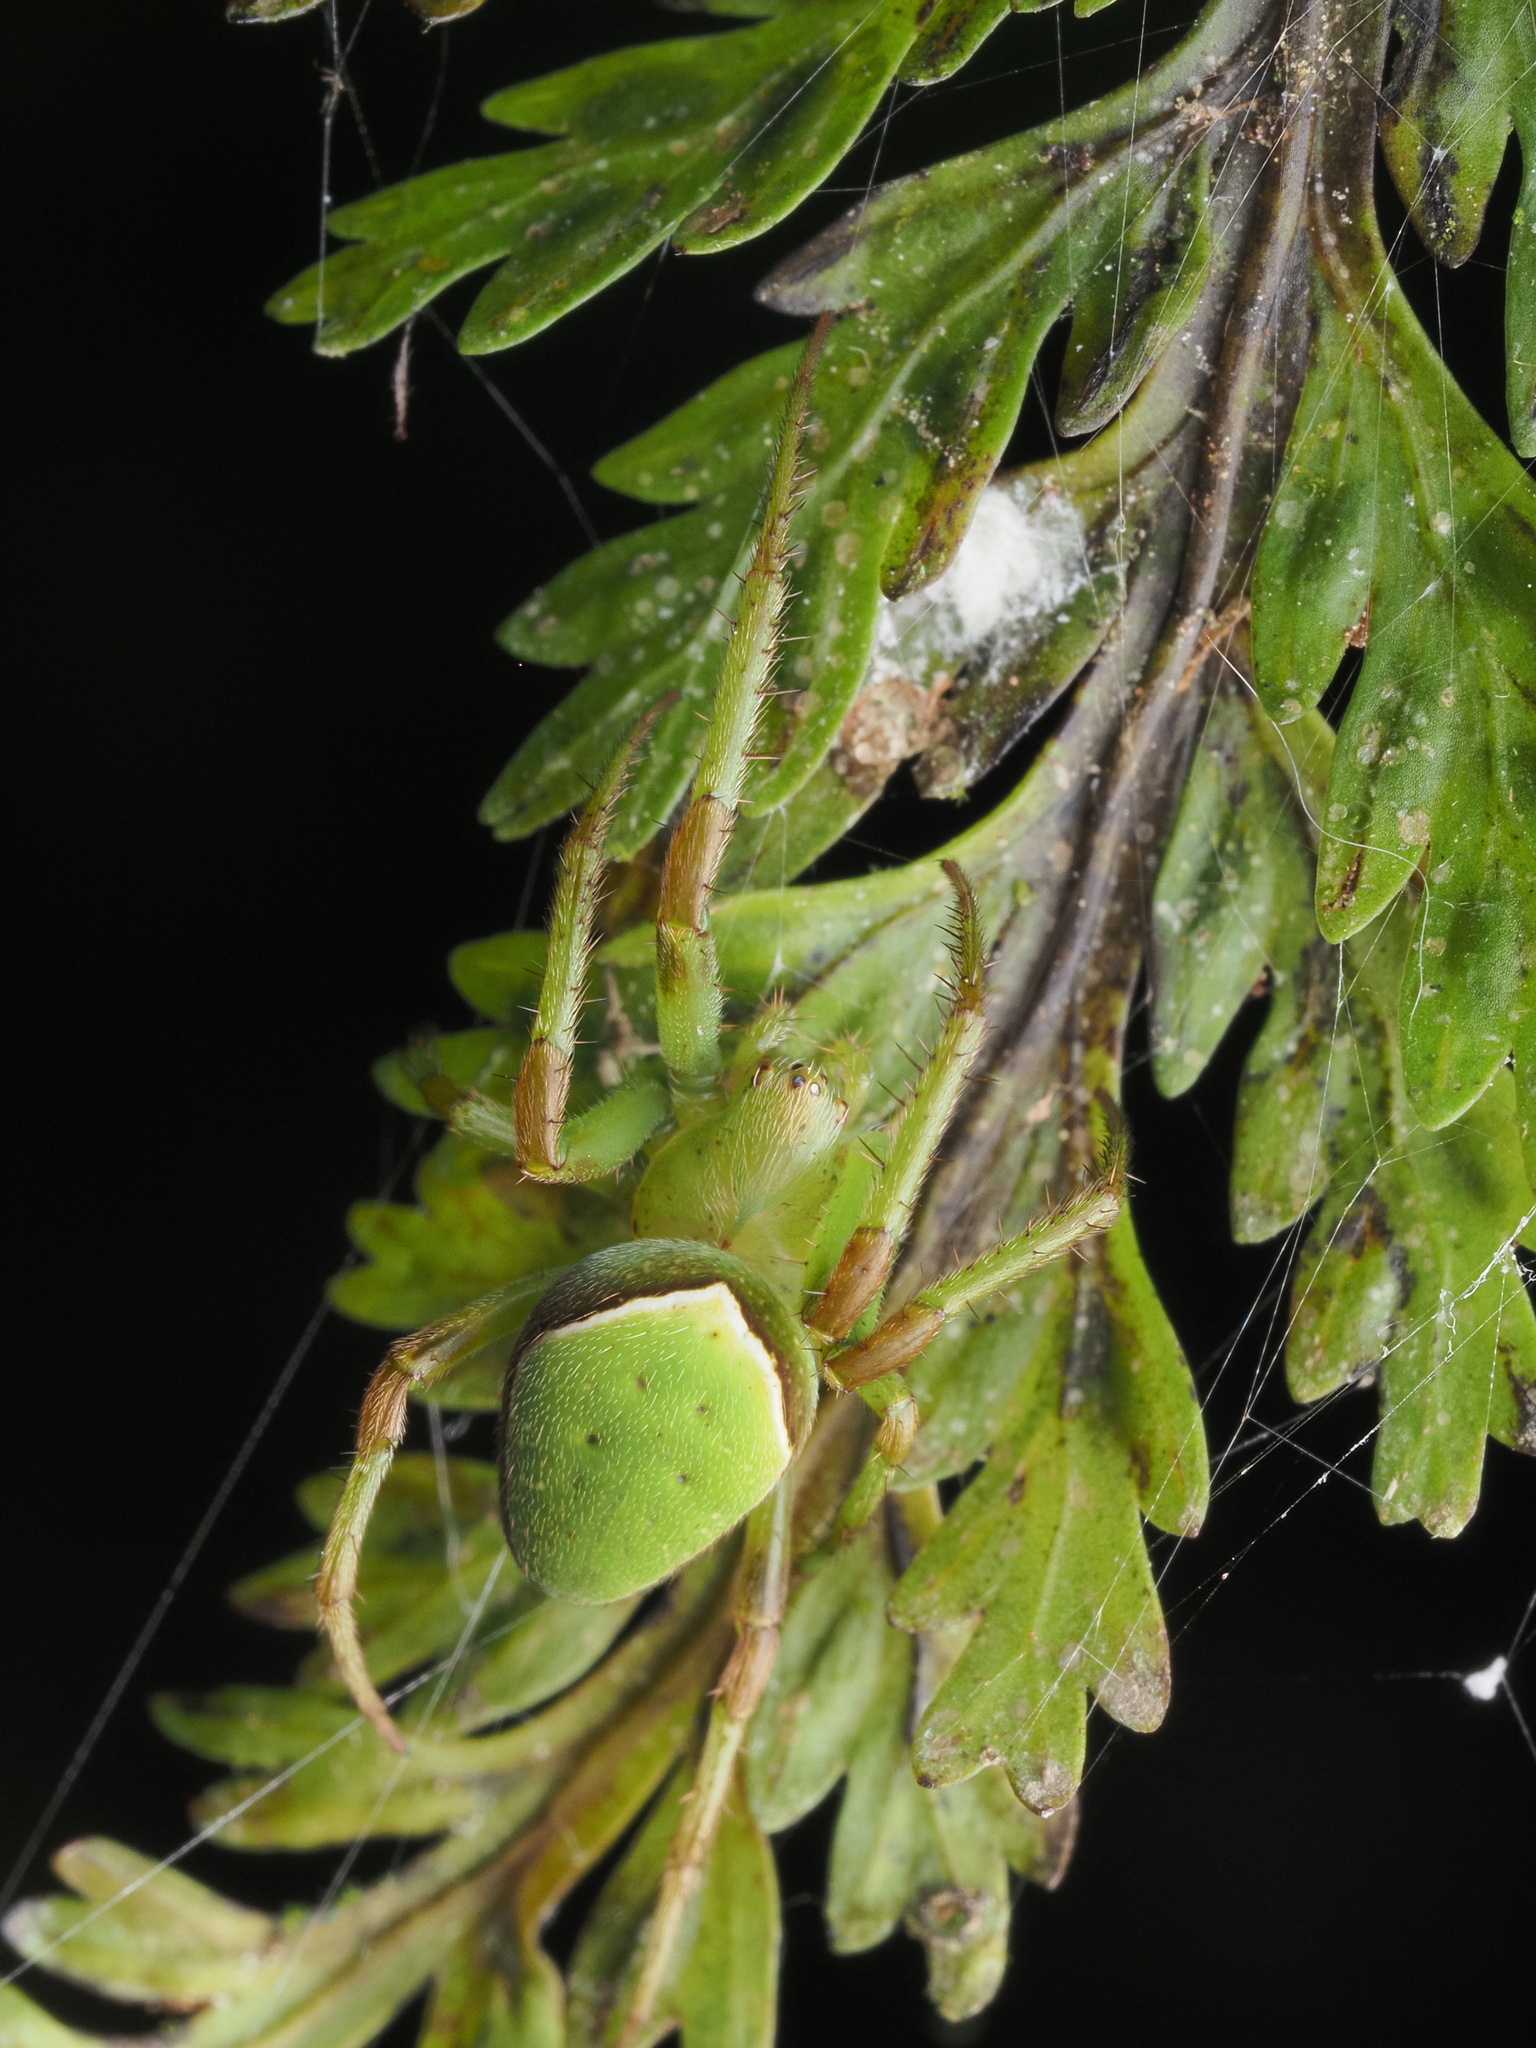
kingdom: Animalia
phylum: Arthropoda
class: Arachnida
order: Araneae
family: Araneidae
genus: Colaranea
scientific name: Colaranea viriditas
